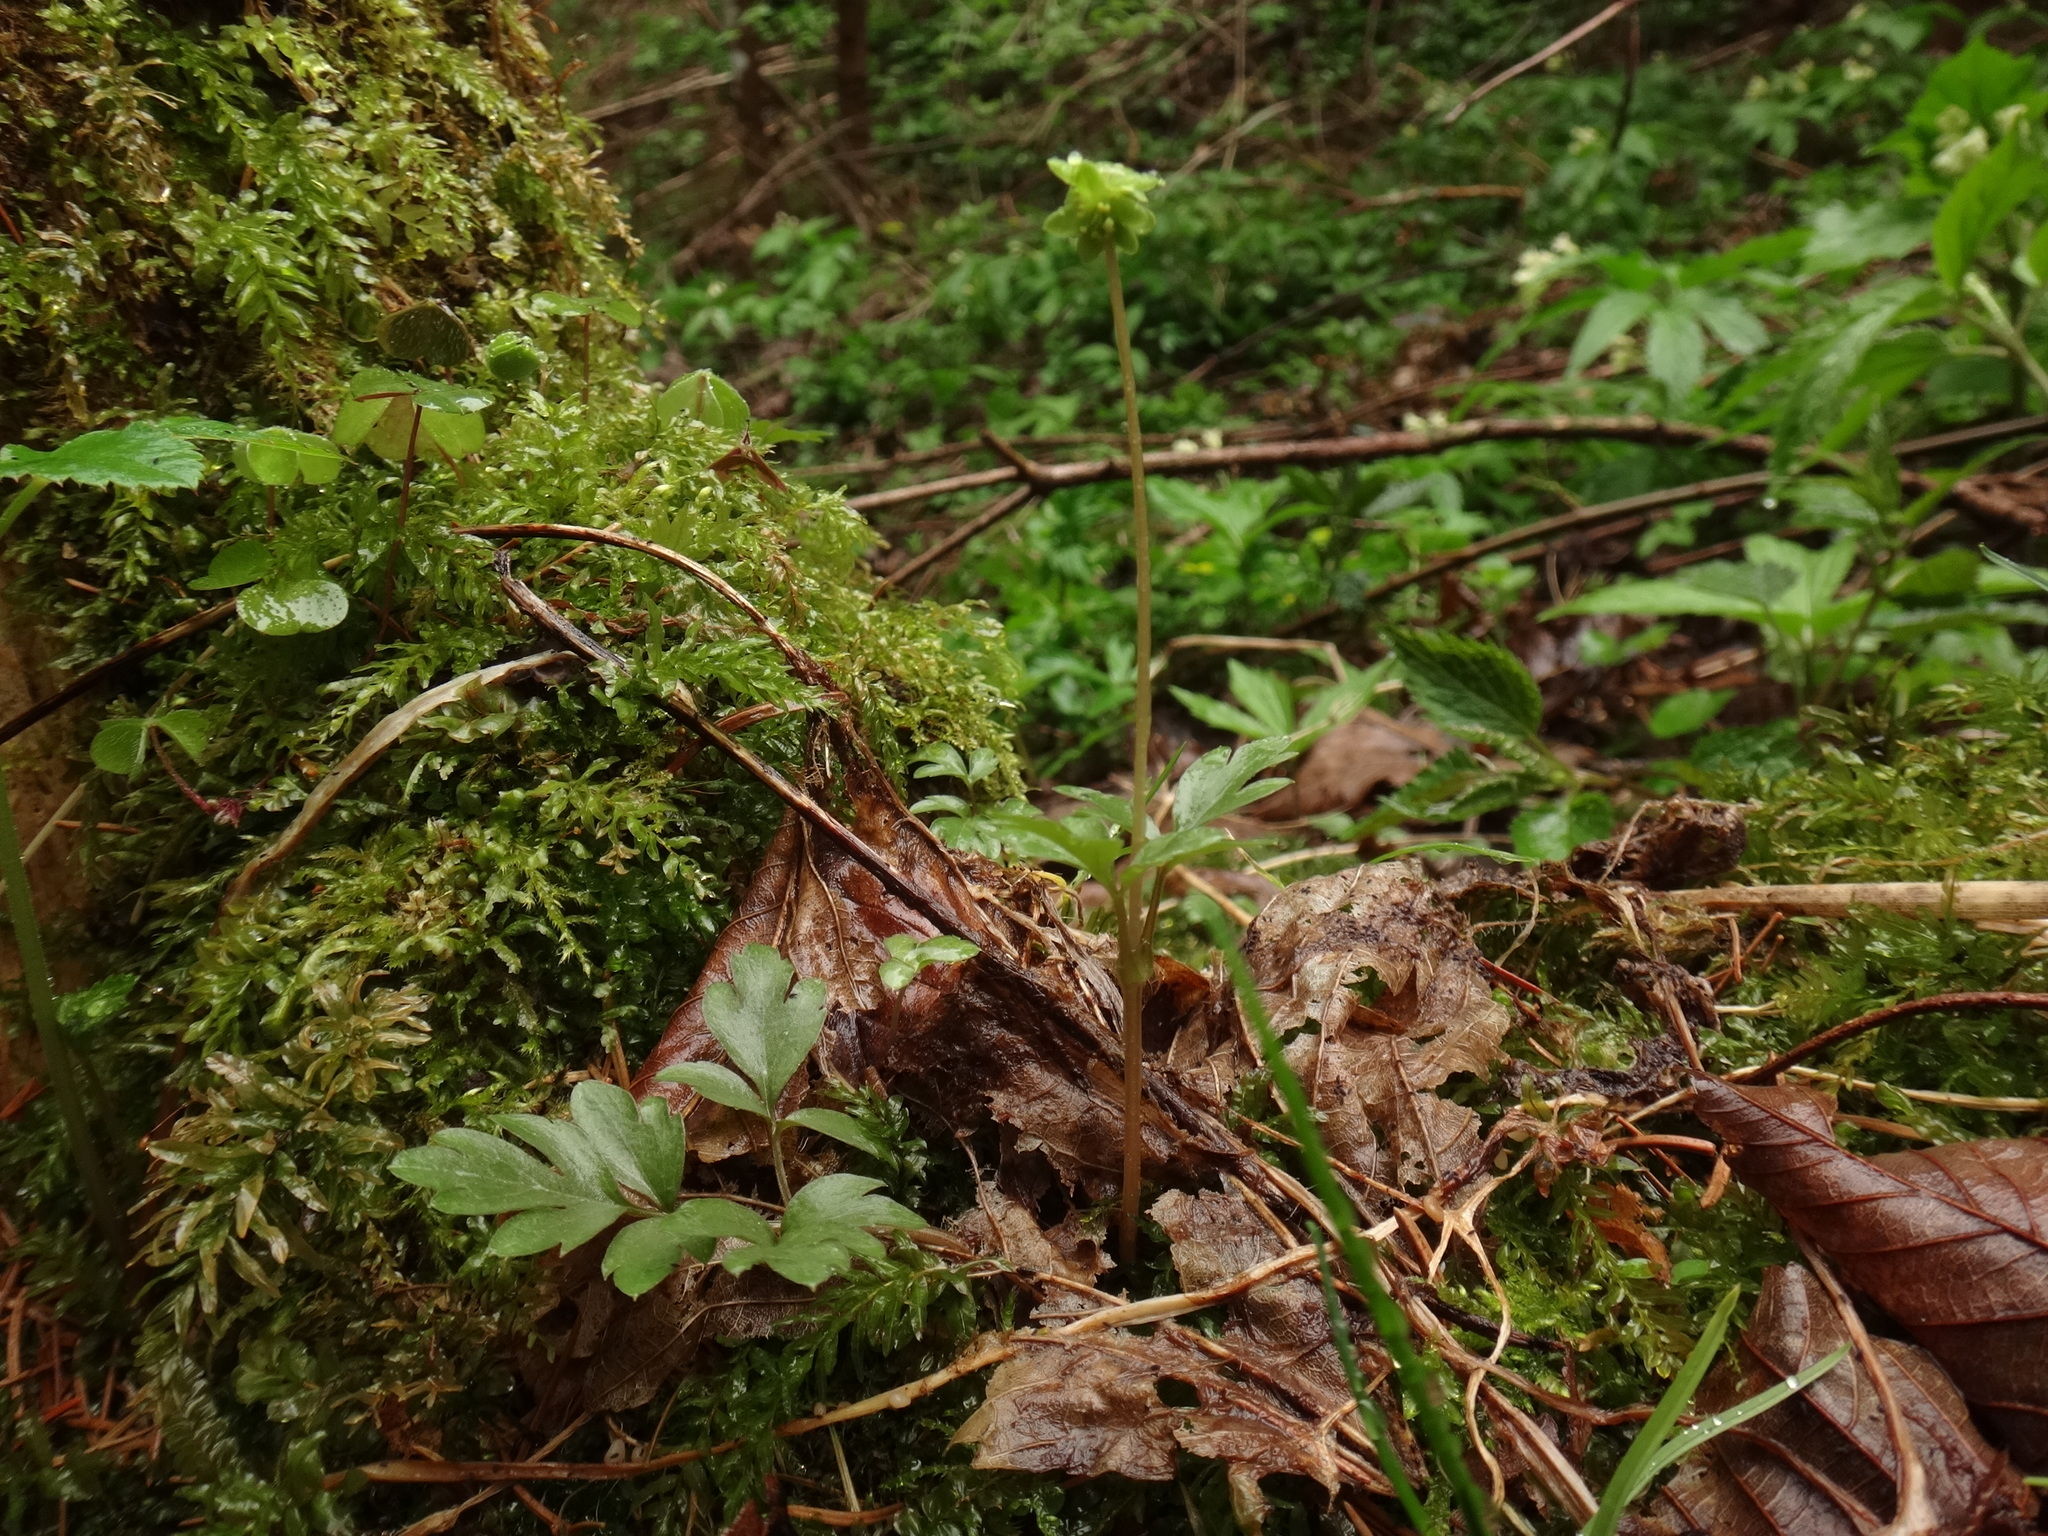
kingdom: Plantae
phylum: Tracheophyta
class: Magnoliopsida
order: Dipsacales
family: Viburnaceae
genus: Adoxa
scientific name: Adoxa moschatellina
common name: Moschatel
